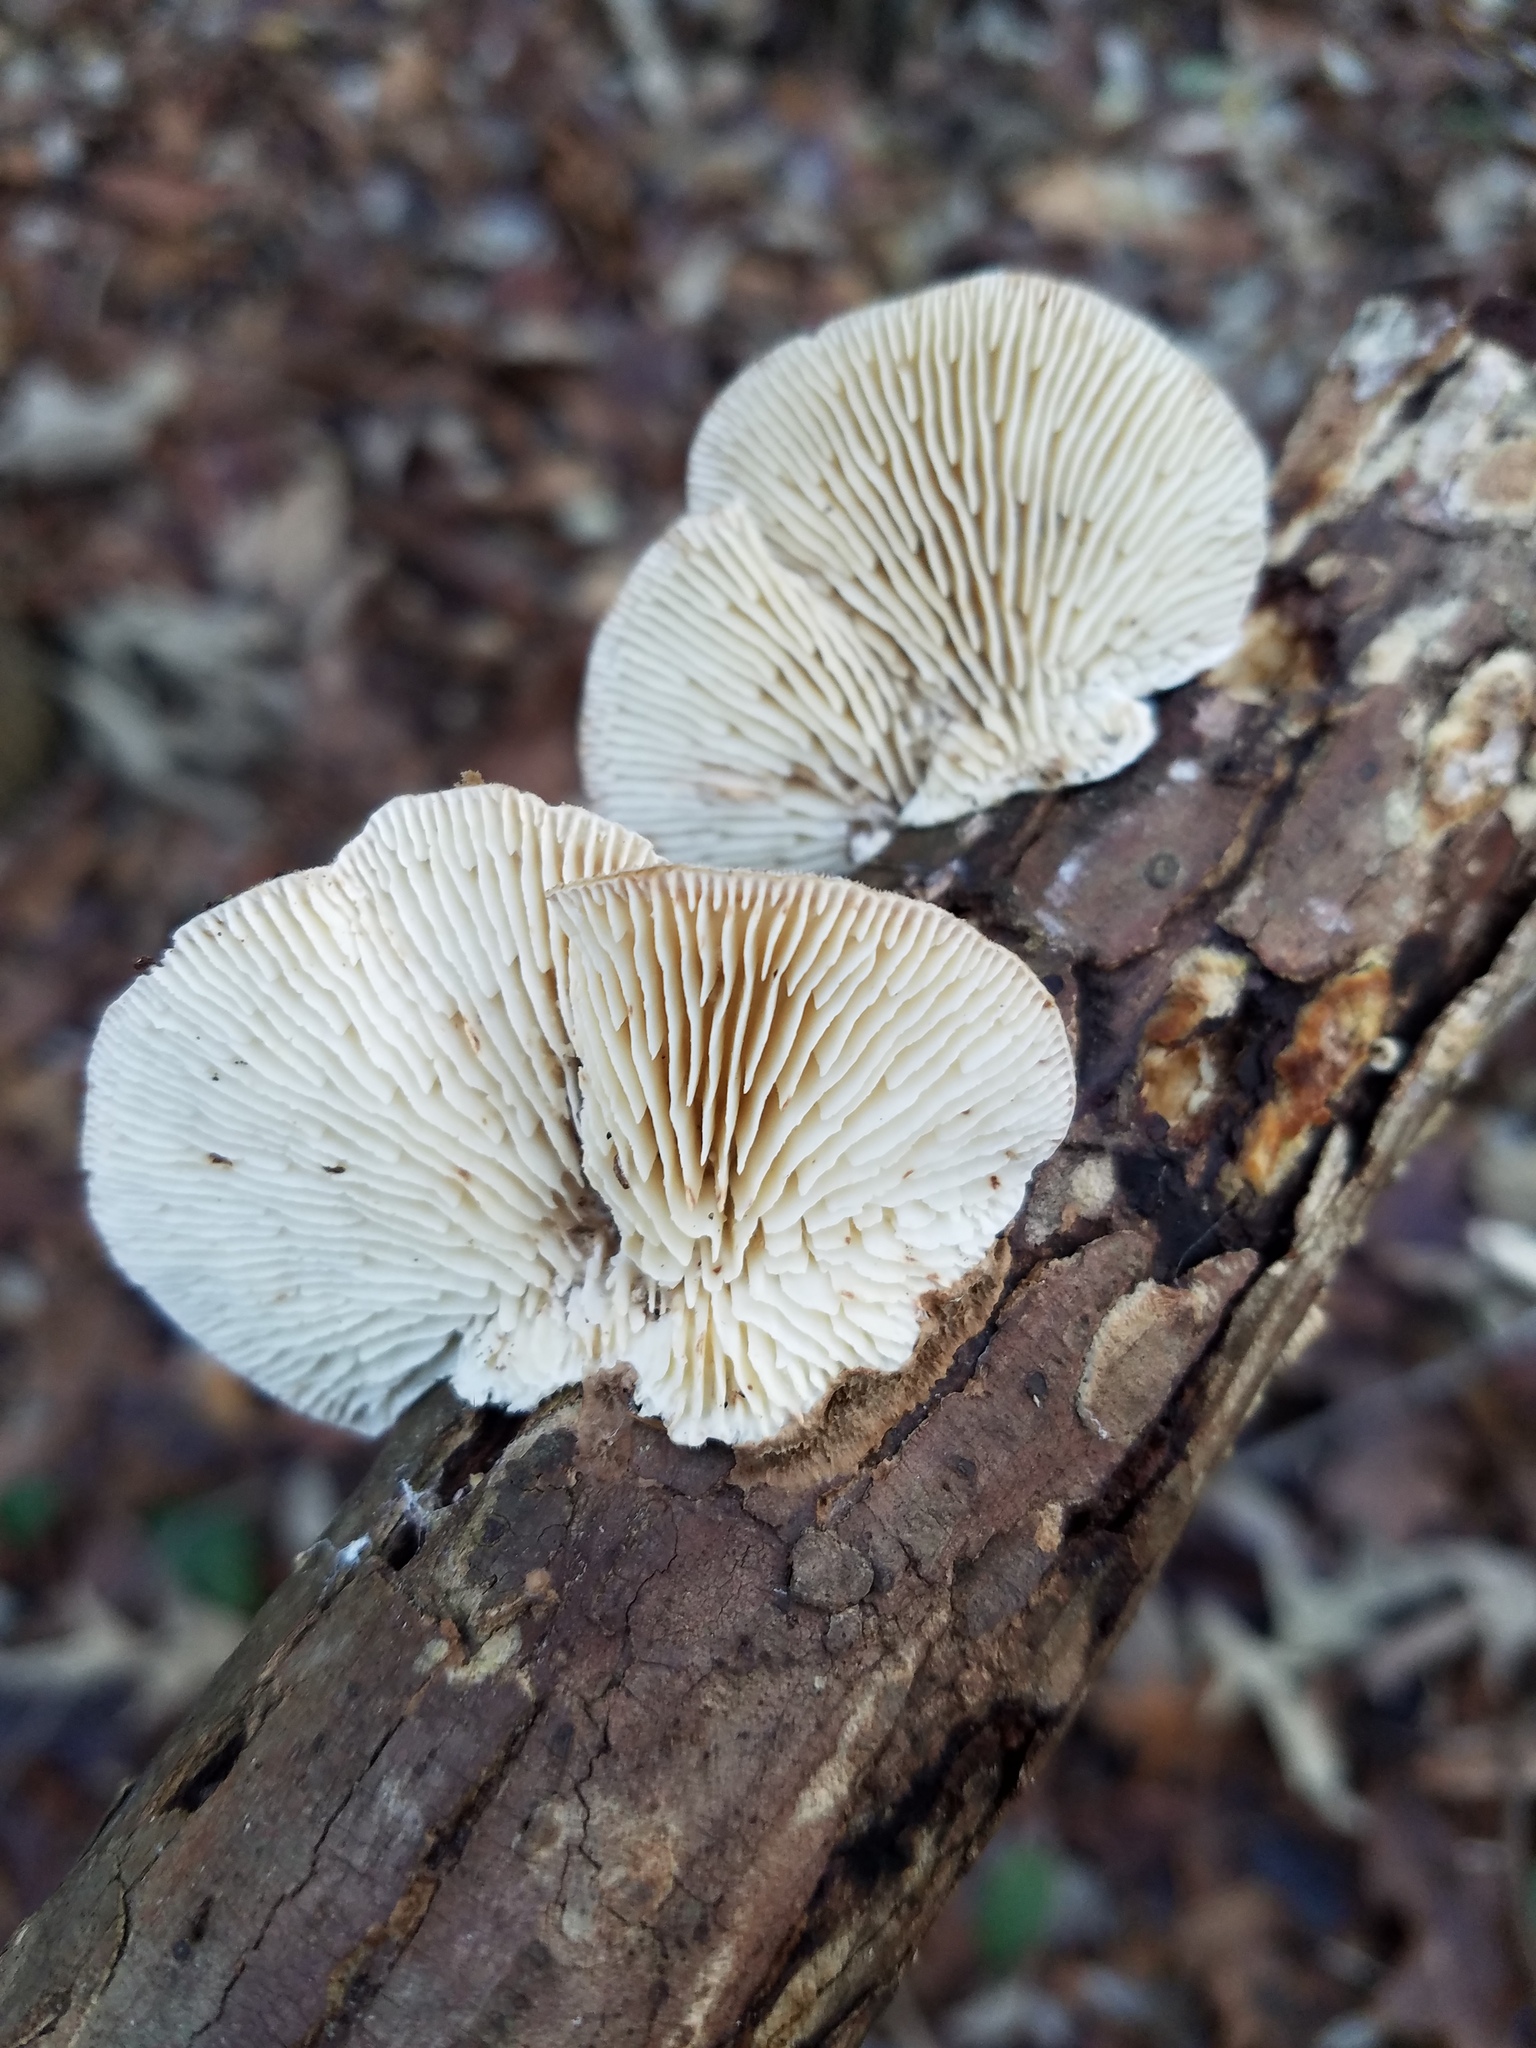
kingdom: Fungi
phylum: Basidiomycota
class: Agaricomycetes
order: Polyporales
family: Polyporaceae
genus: Lenzites
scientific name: Lenzites betulinus
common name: Birch mazegill
